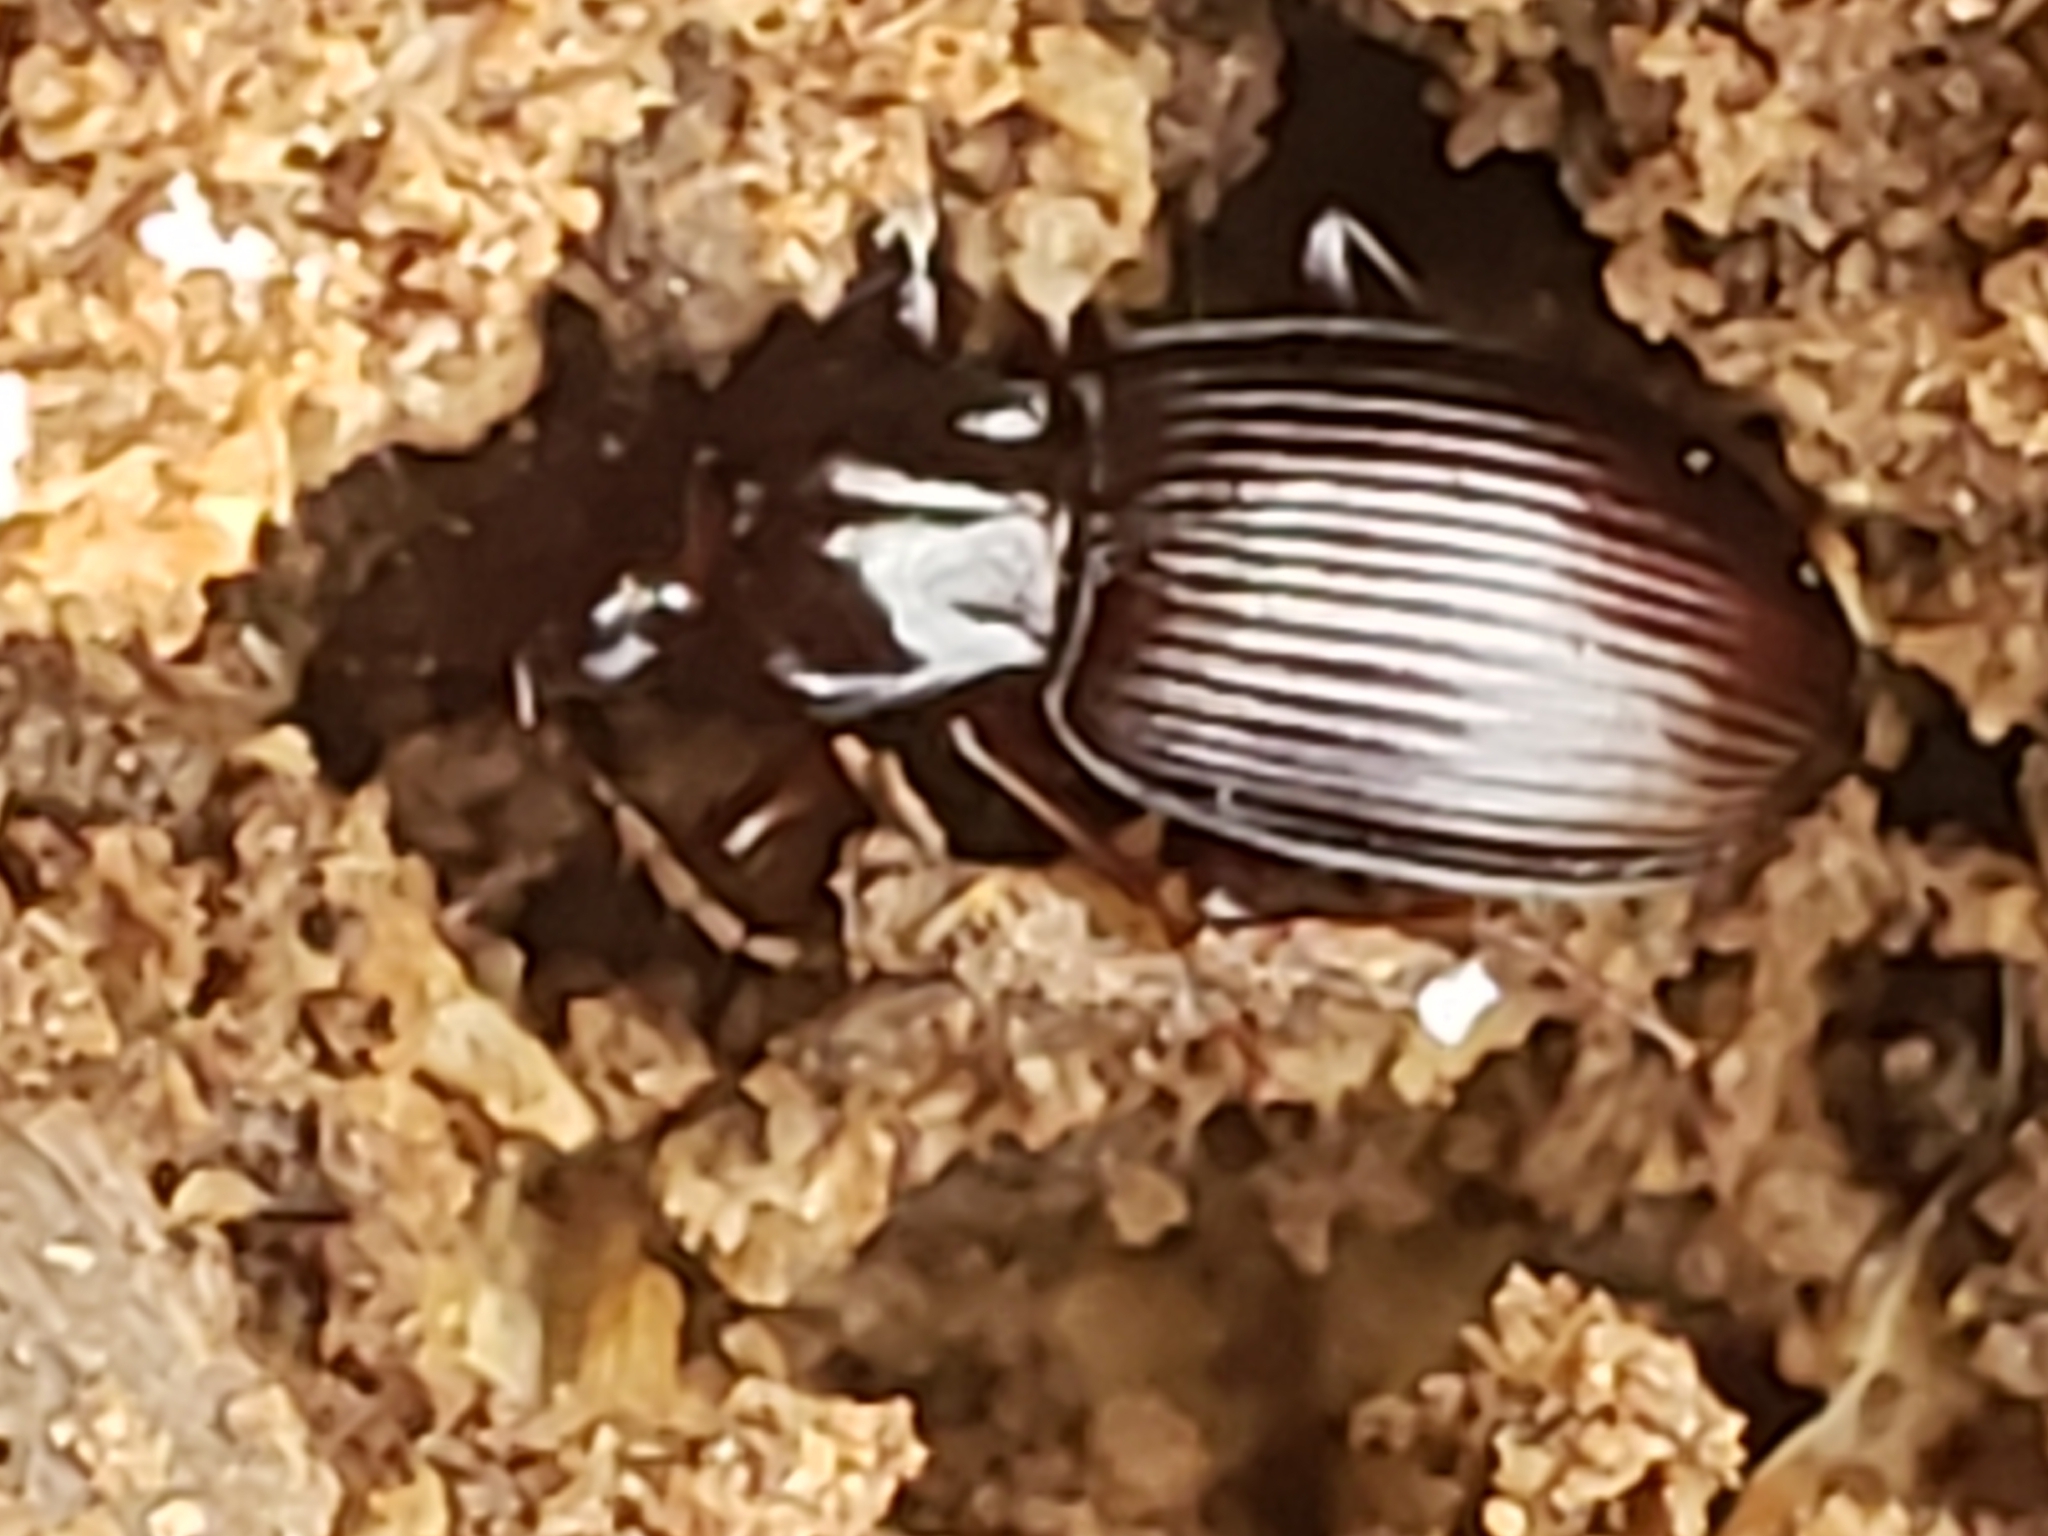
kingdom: Animalia
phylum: Arthropoda
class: Insecta
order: Coleoptera
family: Carabidae
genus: Gastrellarius
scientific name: Gastrellarius honestus
